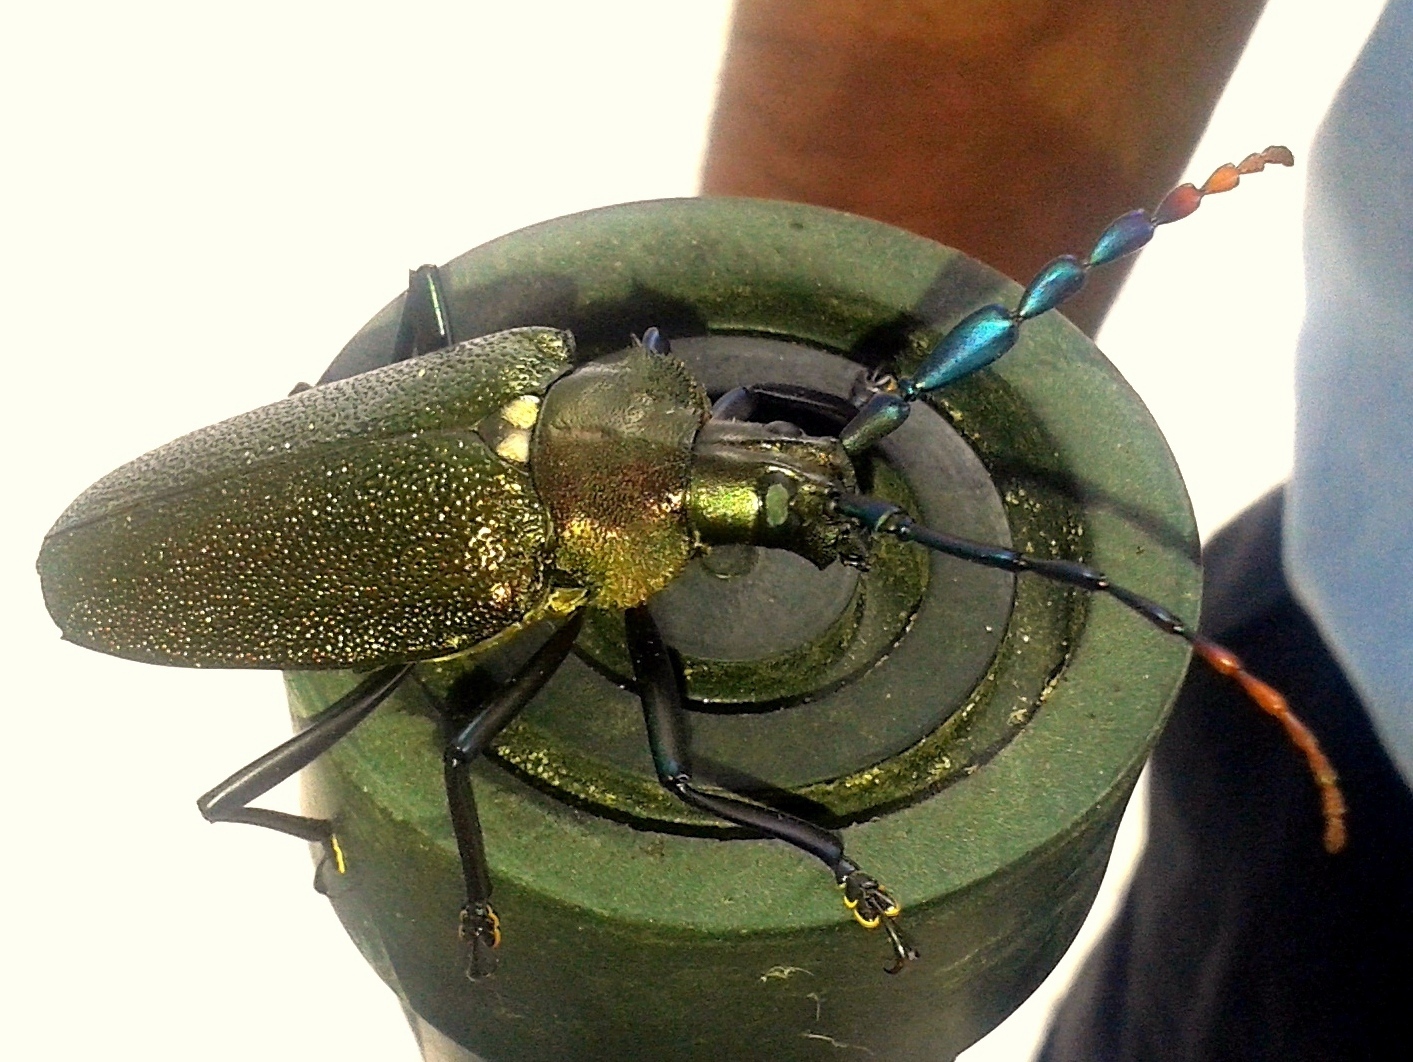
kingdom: Animalia
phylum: Arthropoda
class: Insecta
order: Coleoptera
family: Cerambycidae
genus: Praemallaspis
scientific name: Praemallaspis leucaspis
